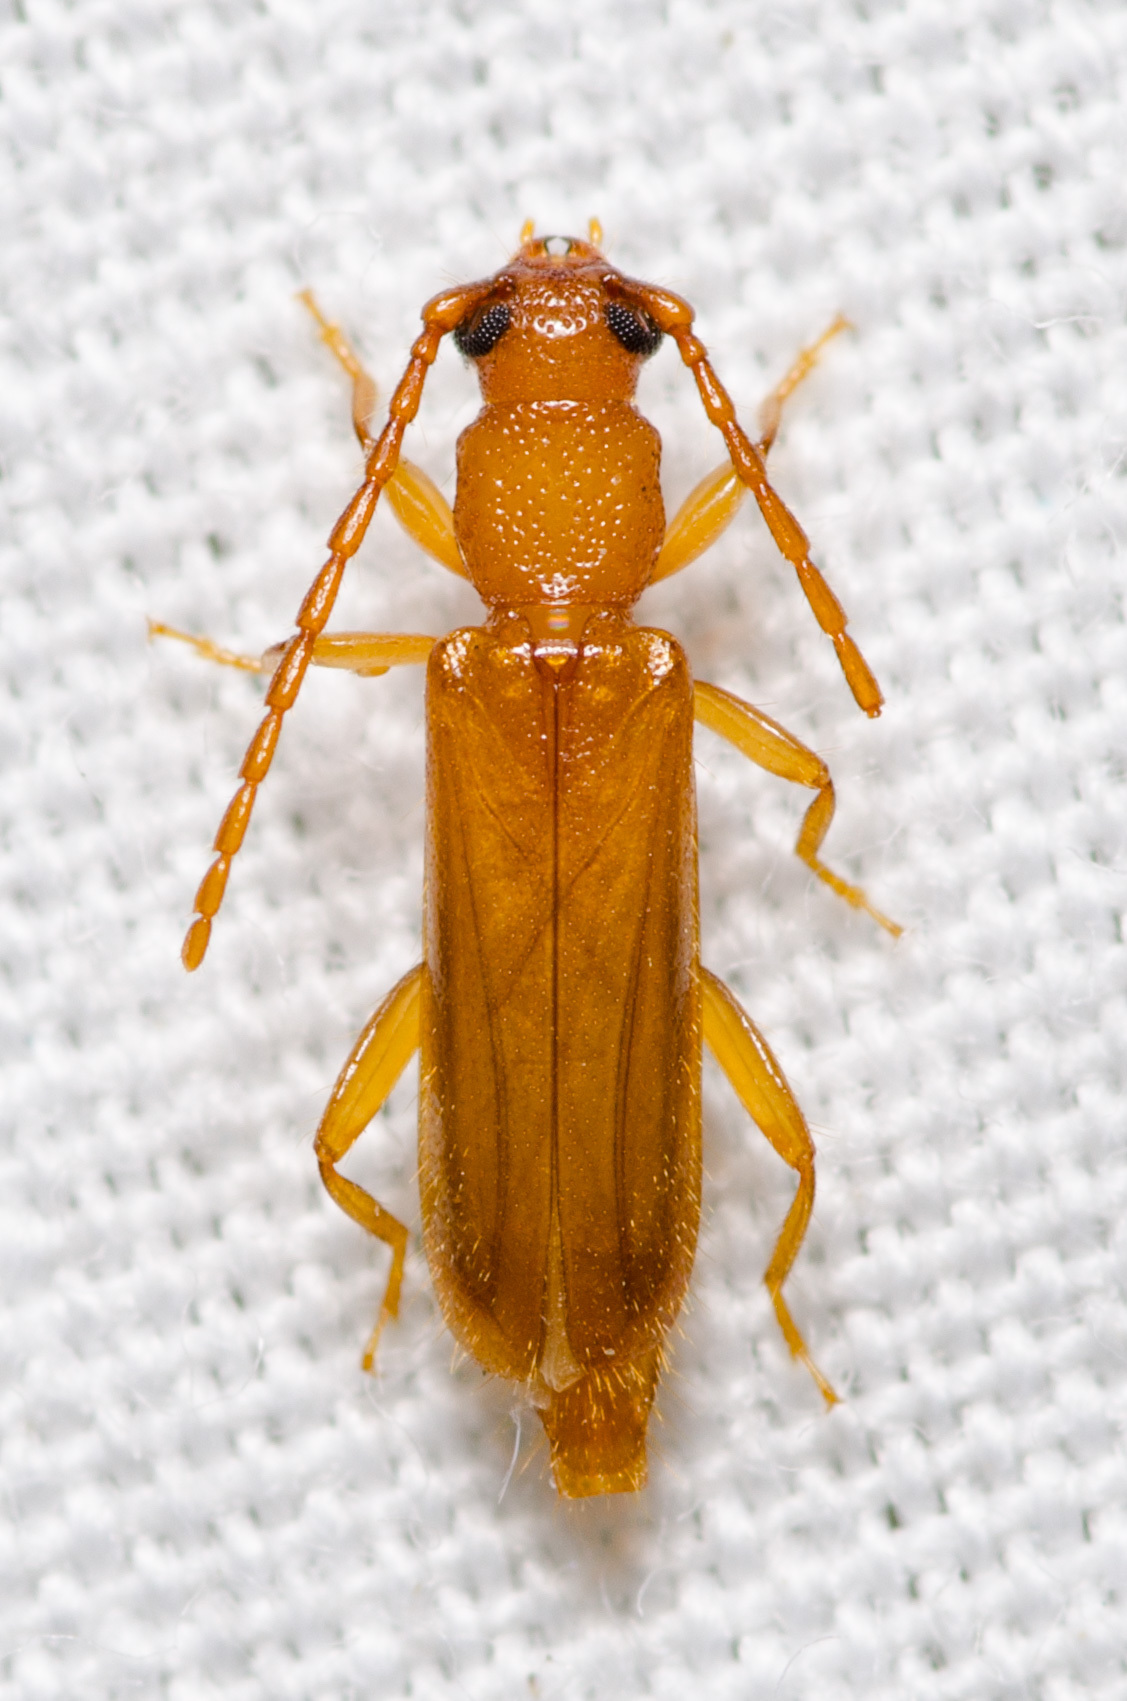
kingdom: Animalia
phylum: Arthropoda
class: Insecta
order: Coleoptera
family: Cerambycidae
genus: Smodicum
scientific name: Smodicum cucujiforme
